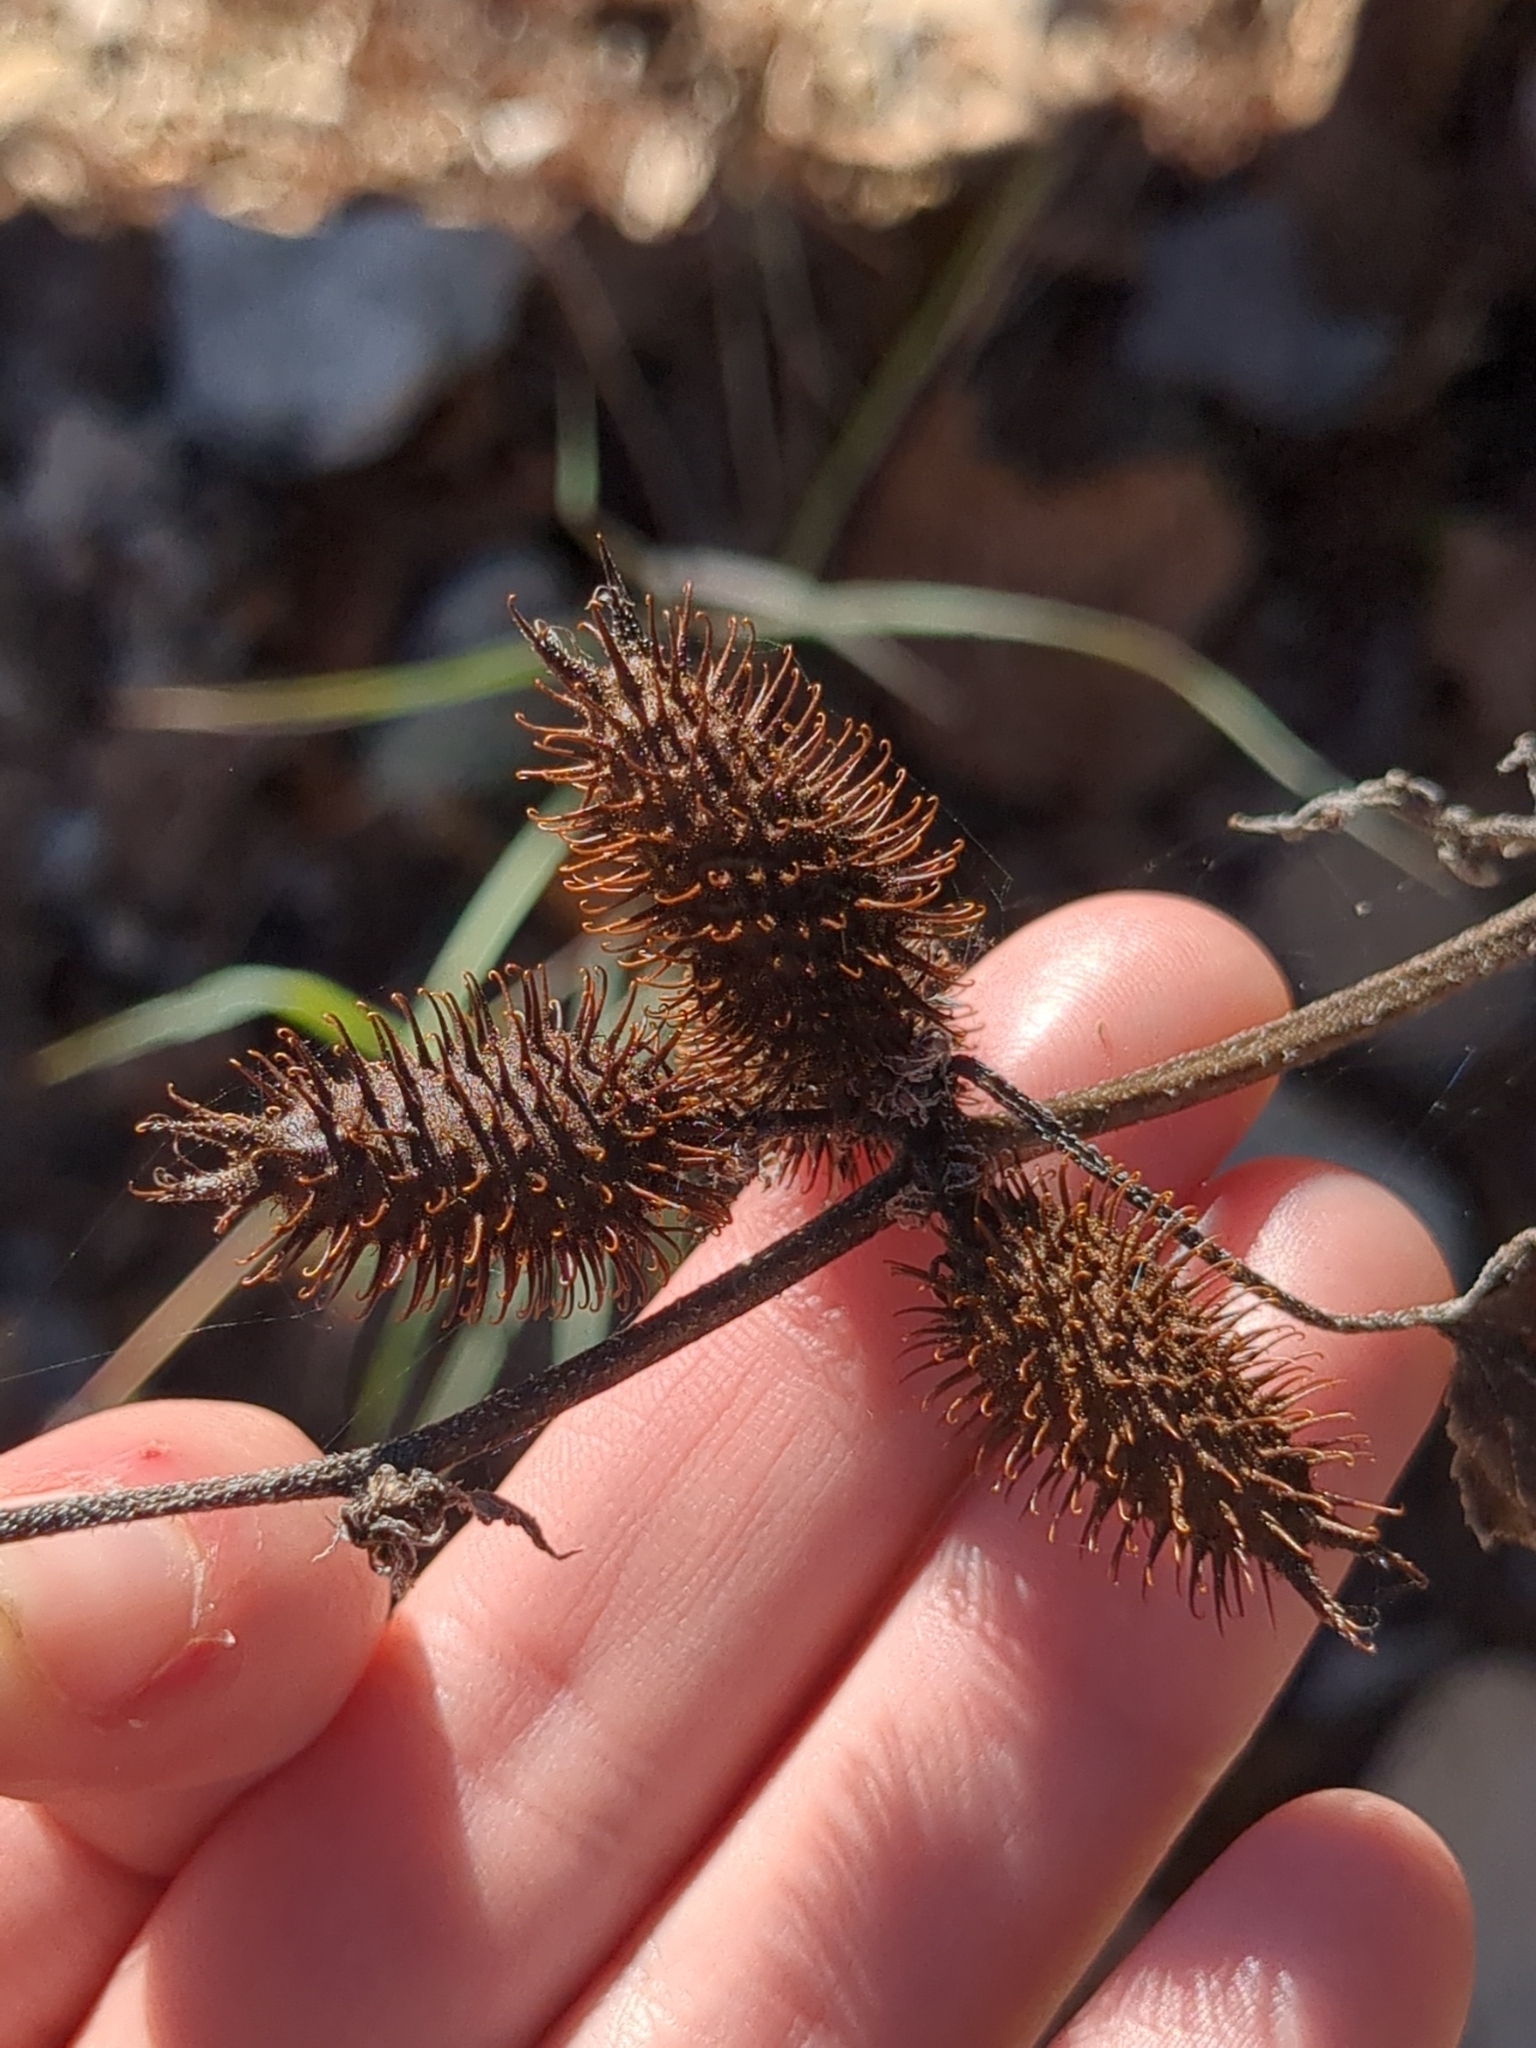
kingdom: Plantae
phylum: Tracheophyta
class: Magnoliopsida
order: Asterales
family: Asteraceae
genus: Xanthium
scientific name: Xanthium strumarium
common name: Rough cocklebur
